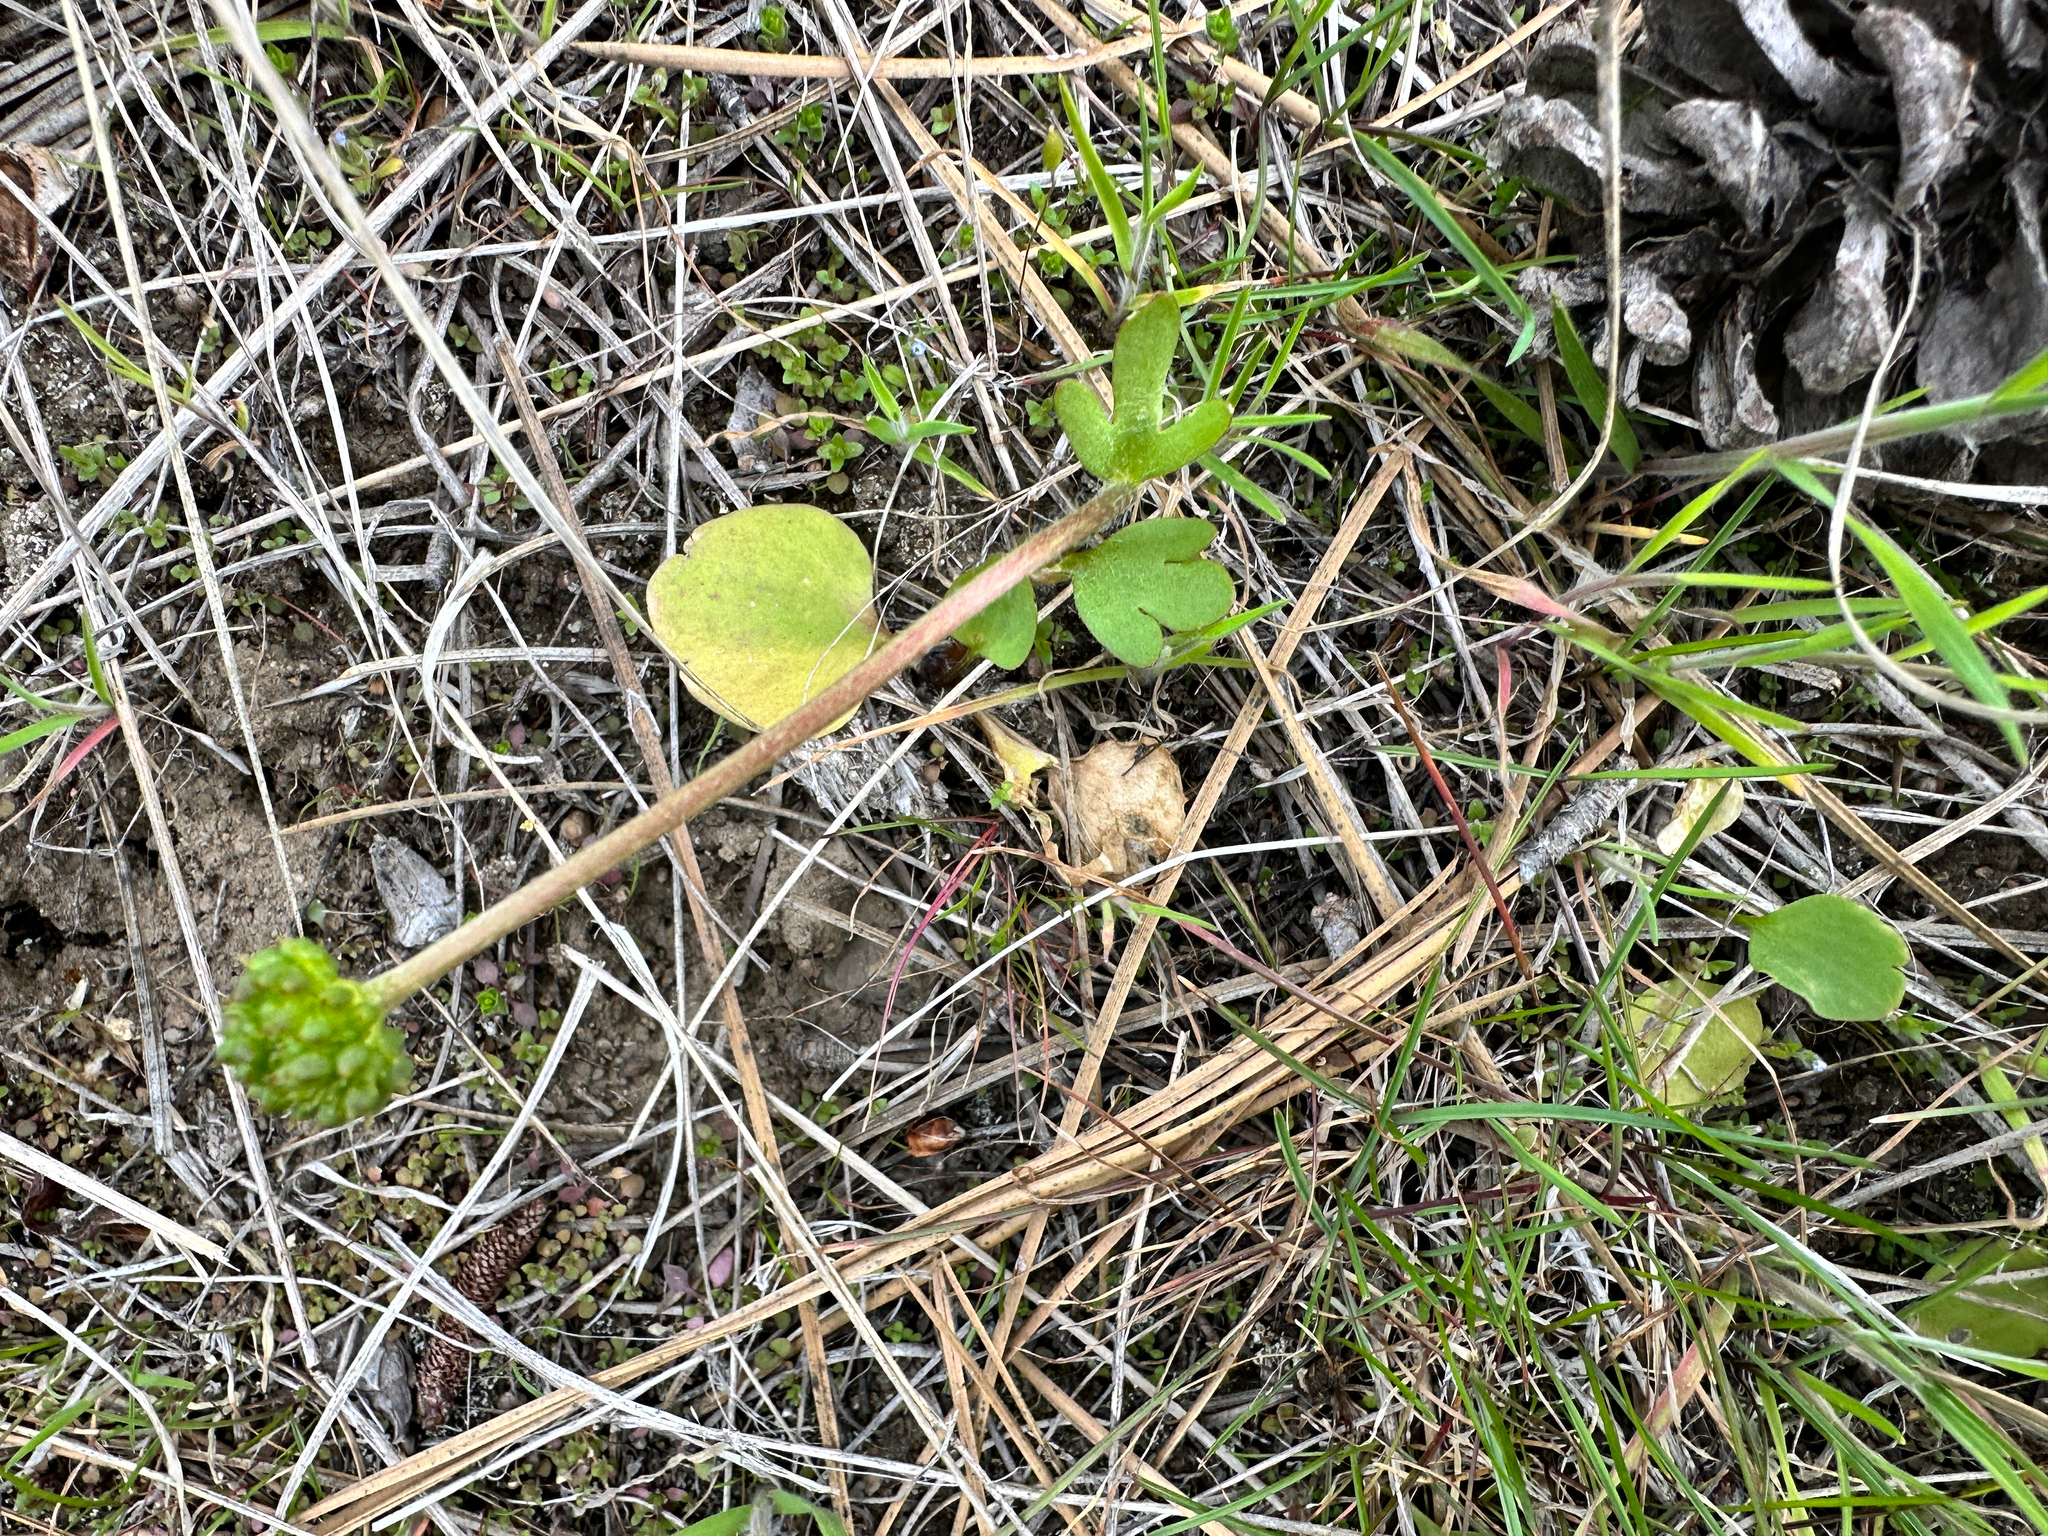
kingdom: Plantae
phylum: Tracheophyta
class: Magnoliopsida
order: Ranunculales
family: Ranunculaceae
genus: Ranunculus
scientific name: Ranunculus glaberrimus
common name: Sagebrush buttercup
